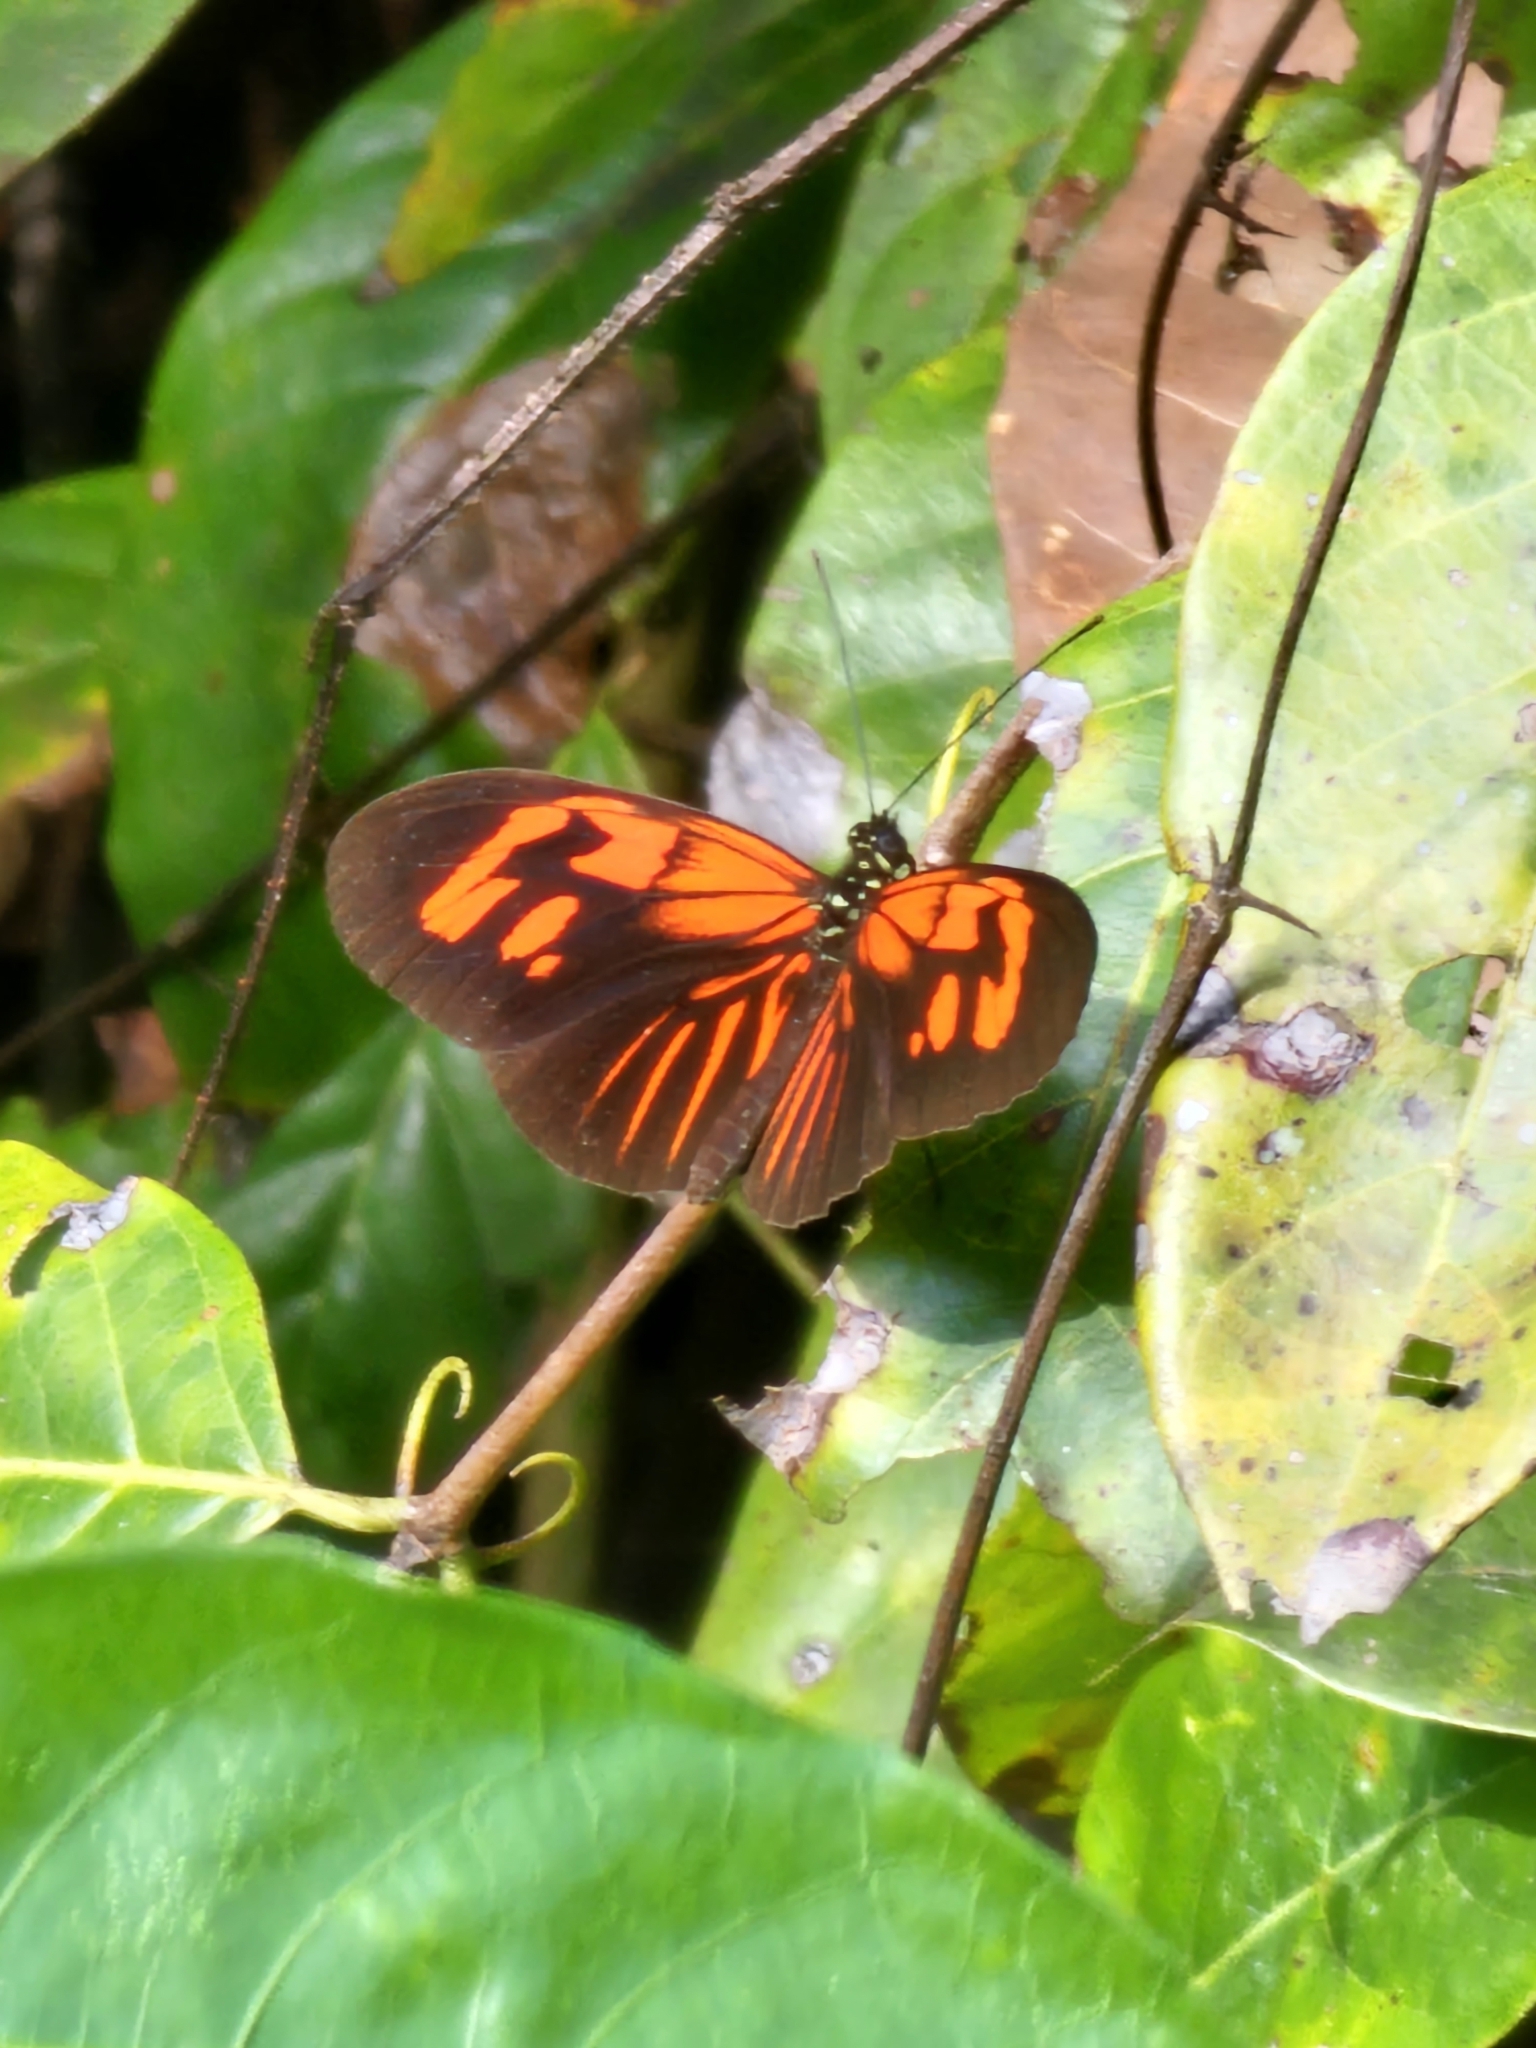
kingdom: Animalia
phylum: Arthropoda
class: Insecta
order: Lepidoptera
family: Nymphalidae
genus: Heliconius
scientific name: Heliconius erato
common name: Common patch longwing
